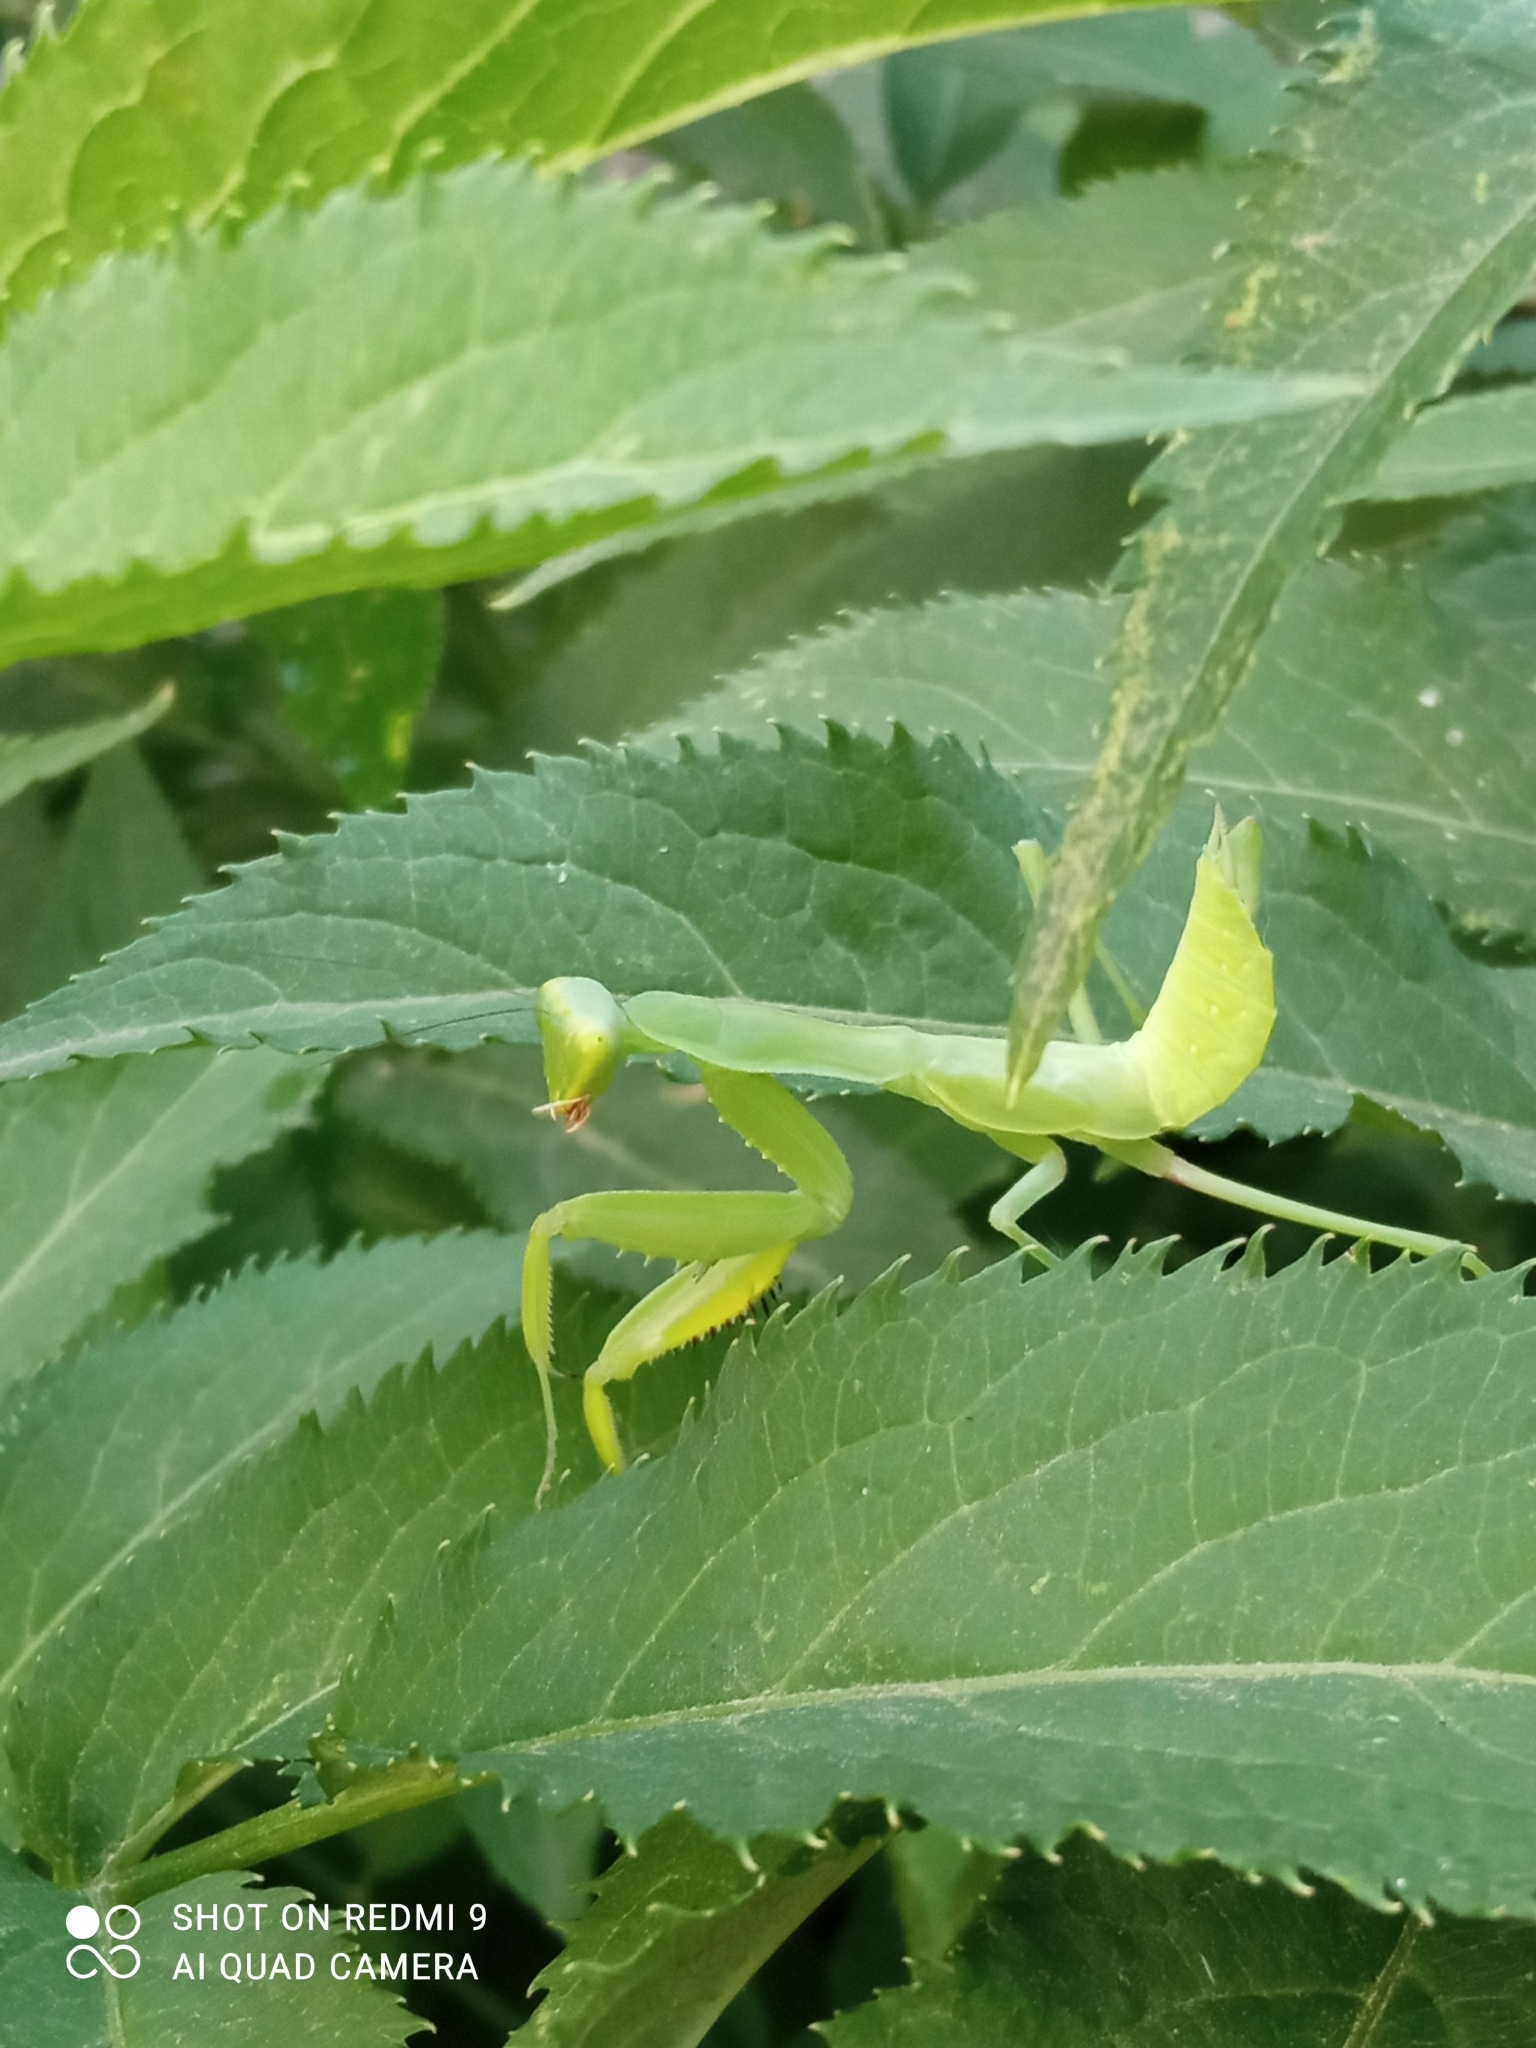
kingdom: Animalia
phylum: Arthropoda
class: Insecta
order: Mantodea
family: Mantidae
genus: Hierodula
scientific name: Hierodula transcaucasica
